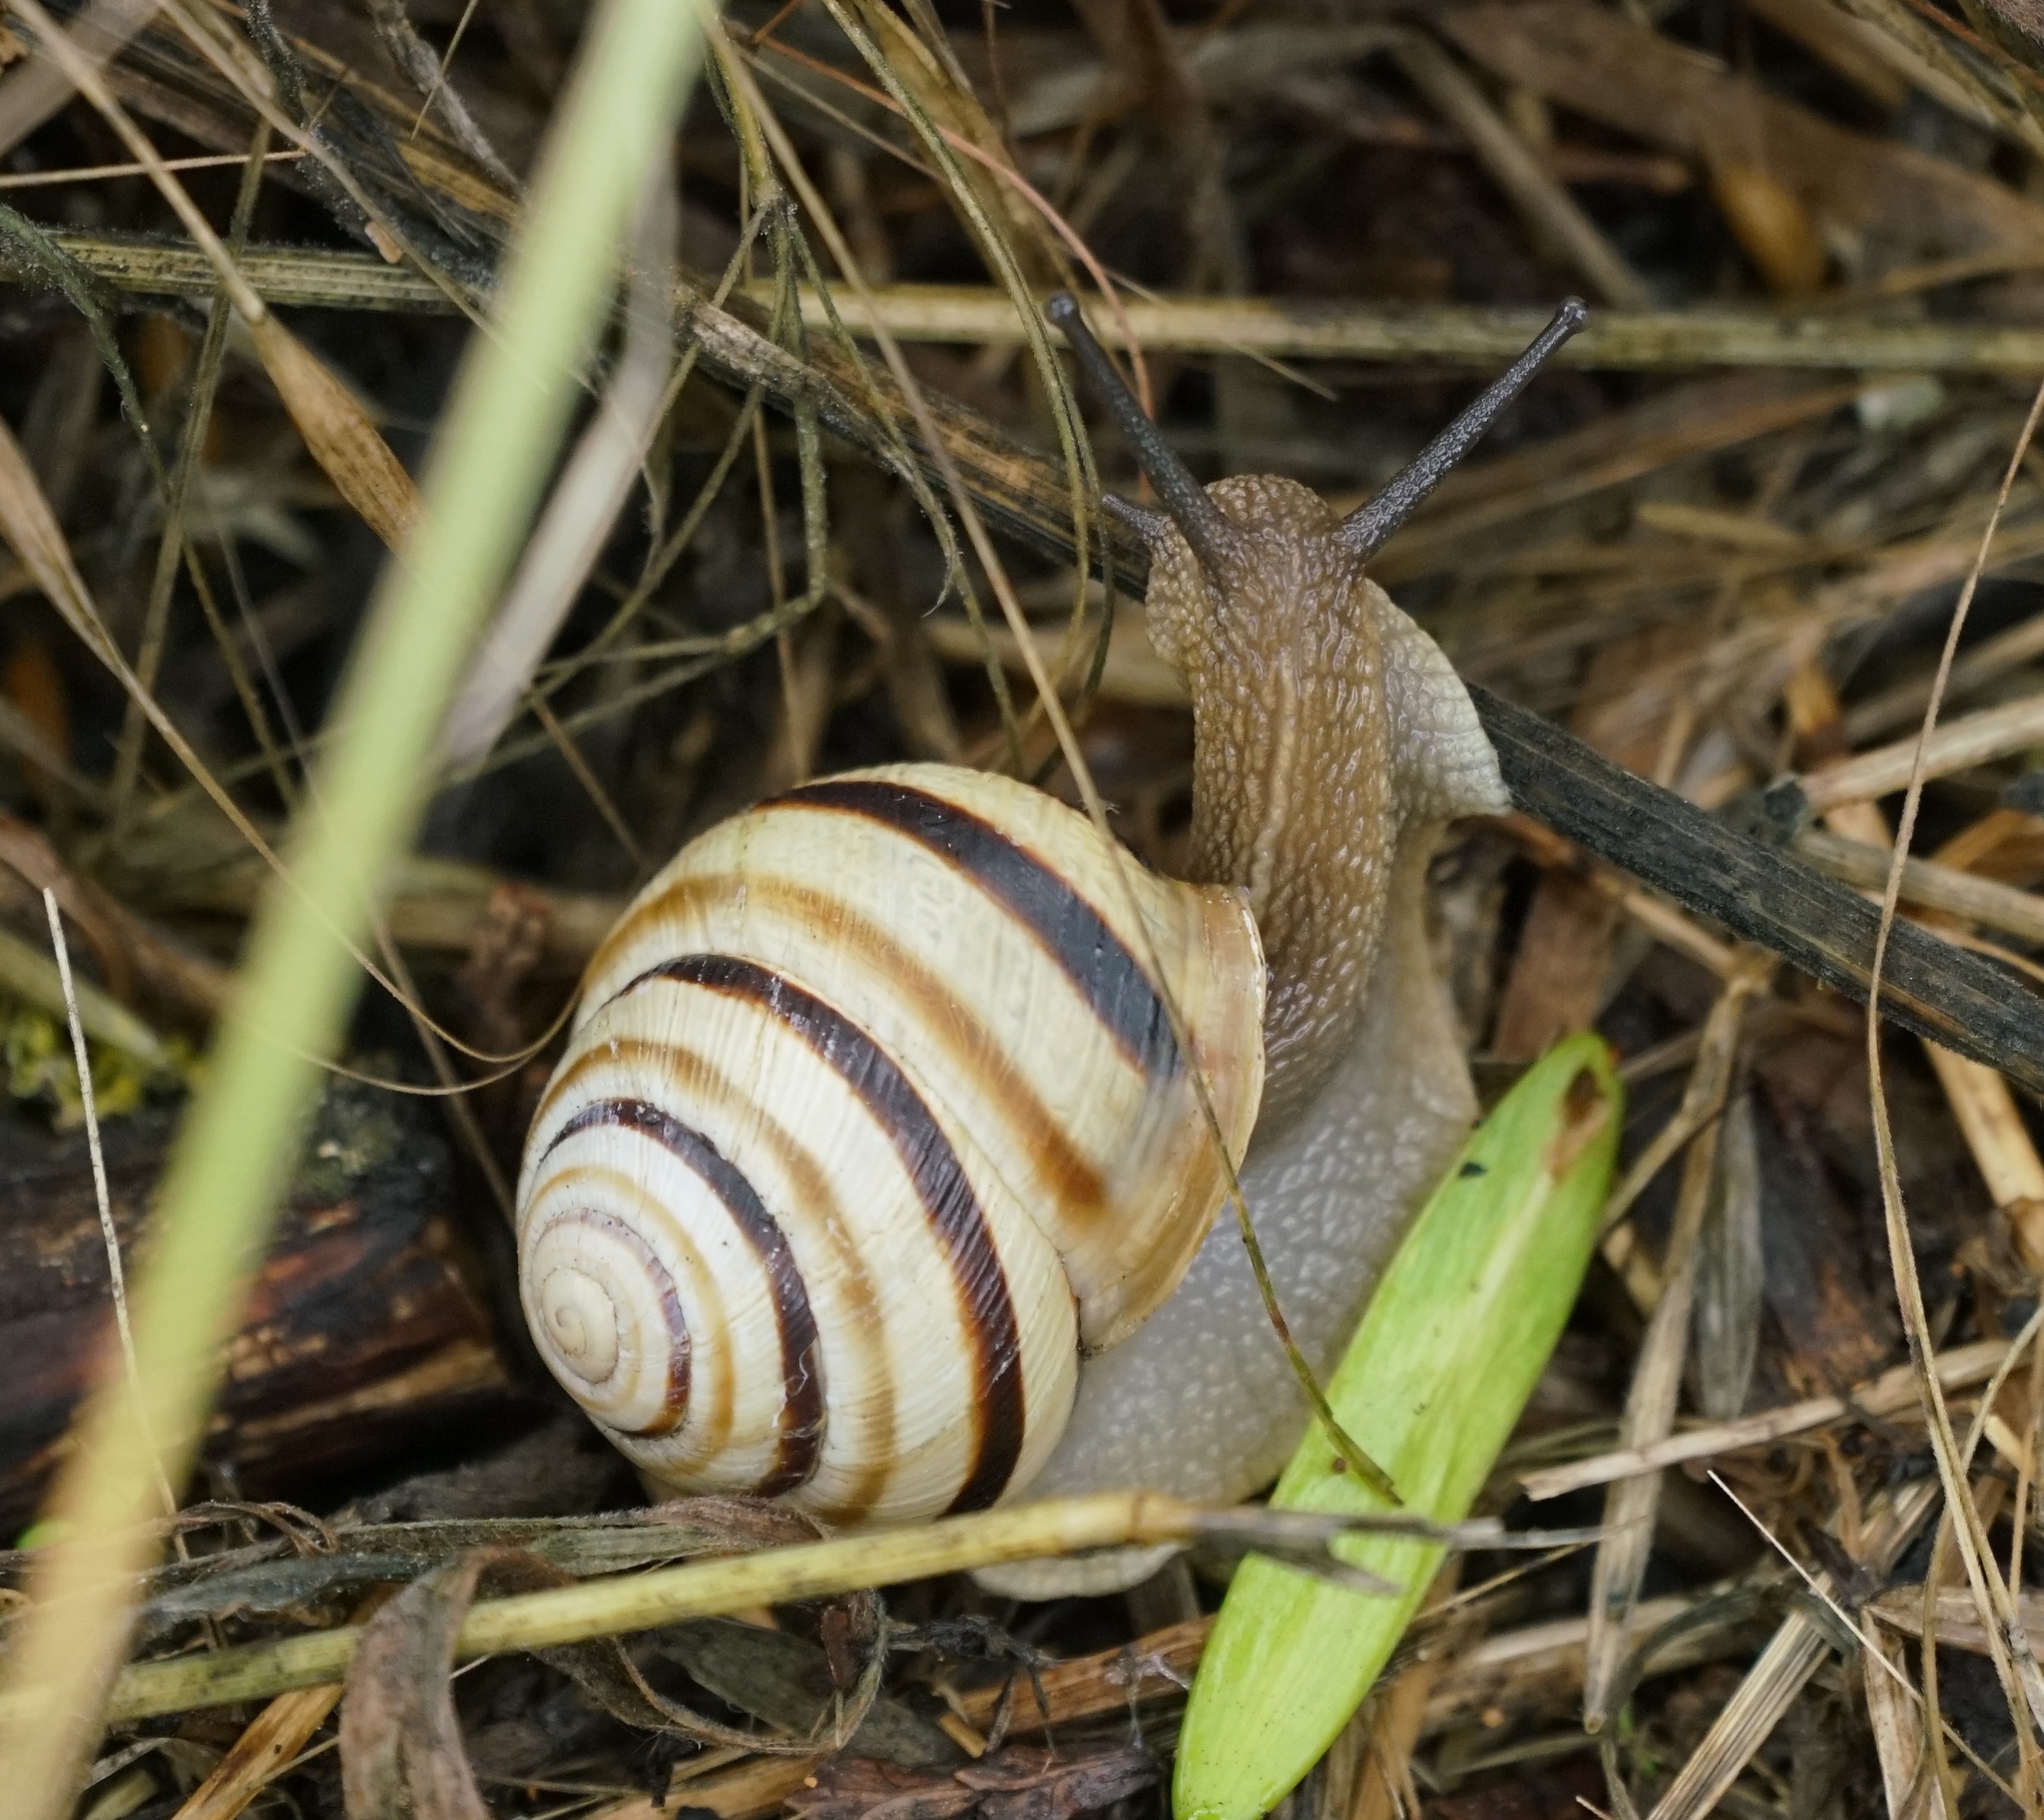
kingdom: Animalia
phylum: Mollusca
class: Gastropoda
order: Stylommatophora
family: Helicidae
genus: Caucasotachea
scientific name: Caucasotachea vindobonensis
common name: European helicid land snail
